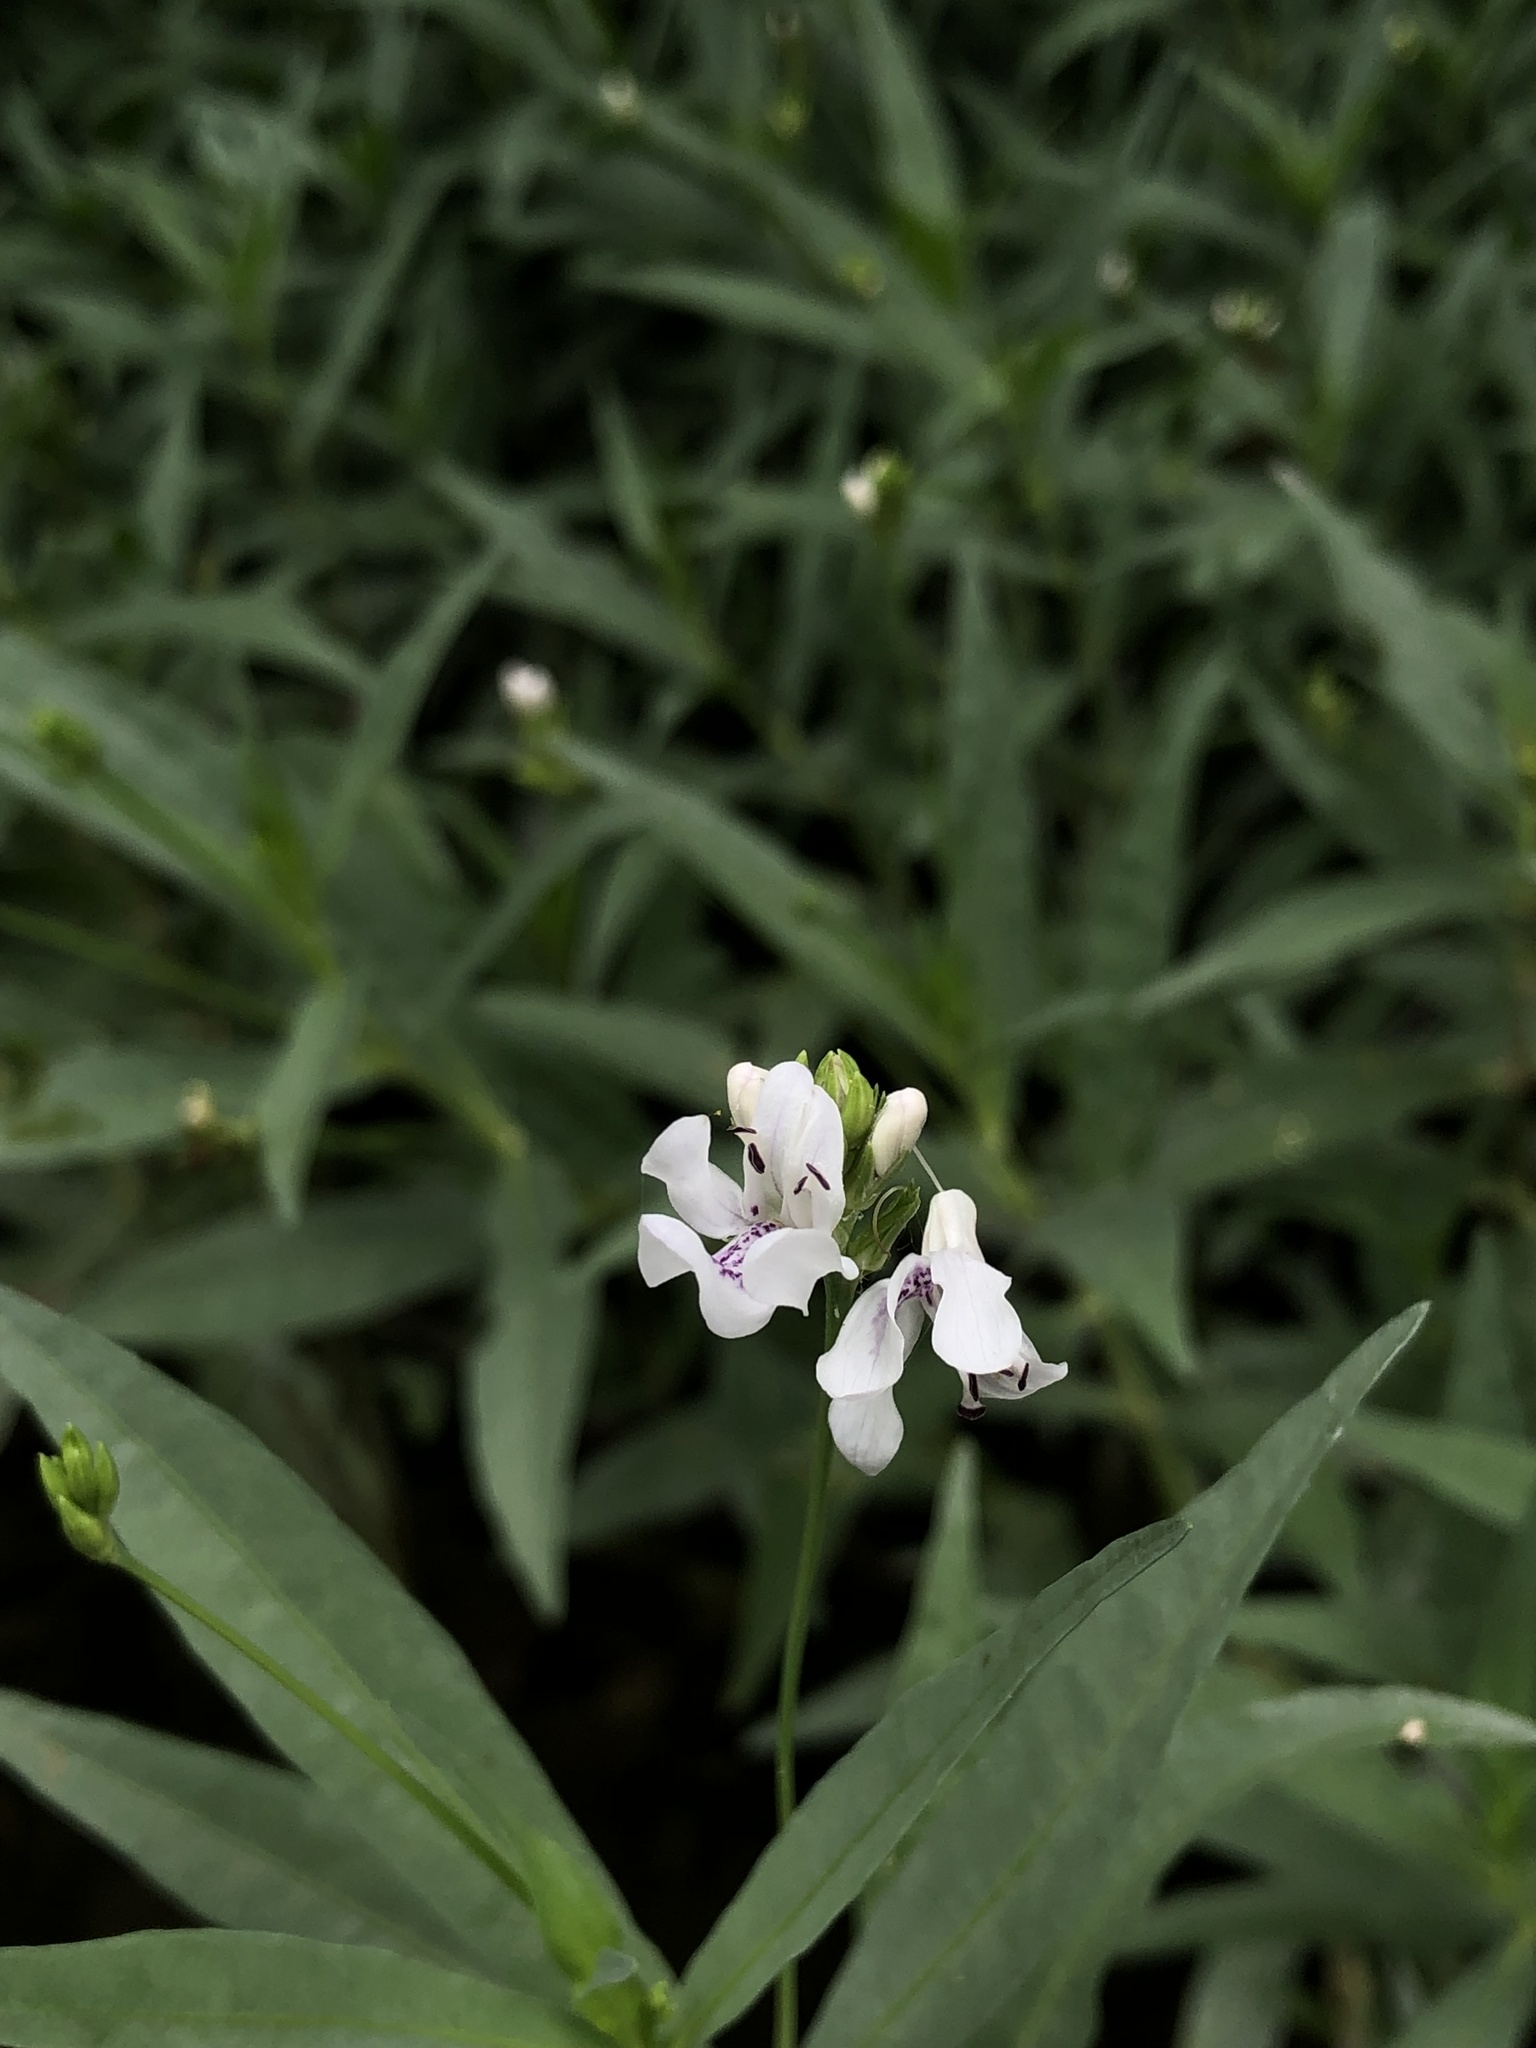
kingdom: Plantae
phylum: Tracheophyta
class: Magnoliopsida
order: Lamiales
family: Acanthaceae
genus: Dianthera
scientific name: Dianthera americana
